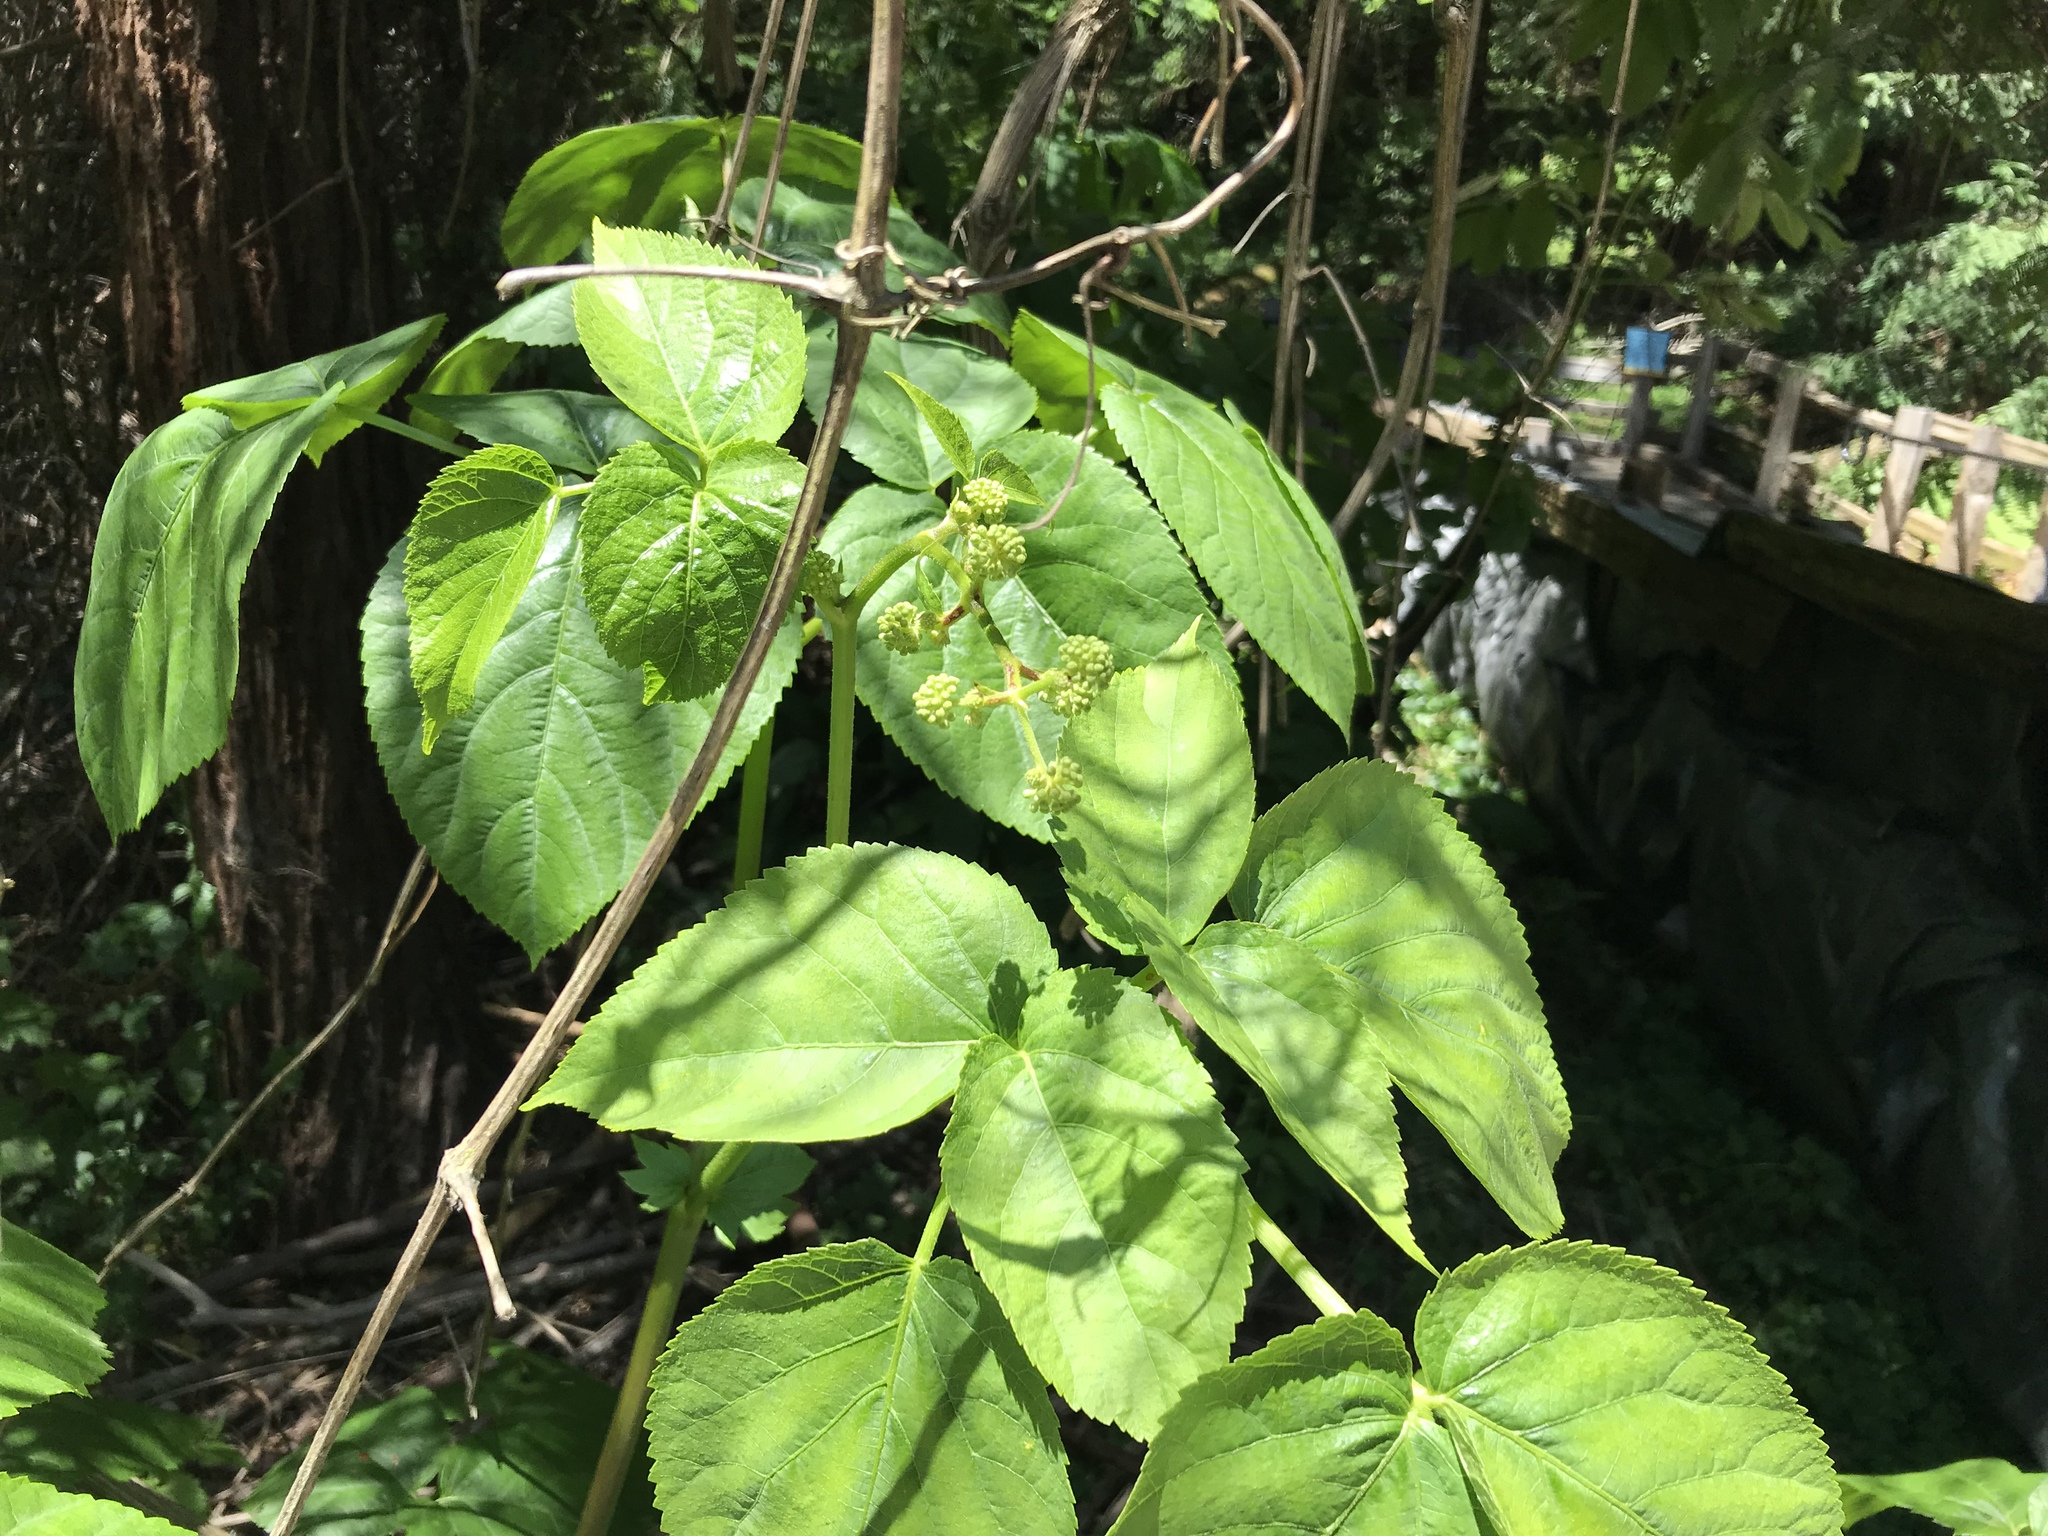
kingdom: Plantae
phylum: Tracheophyta
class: Magnoliopsida
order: Apiales
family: Araliaceae
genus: Aralia
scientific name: Aralia californica
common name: California-ginseng
